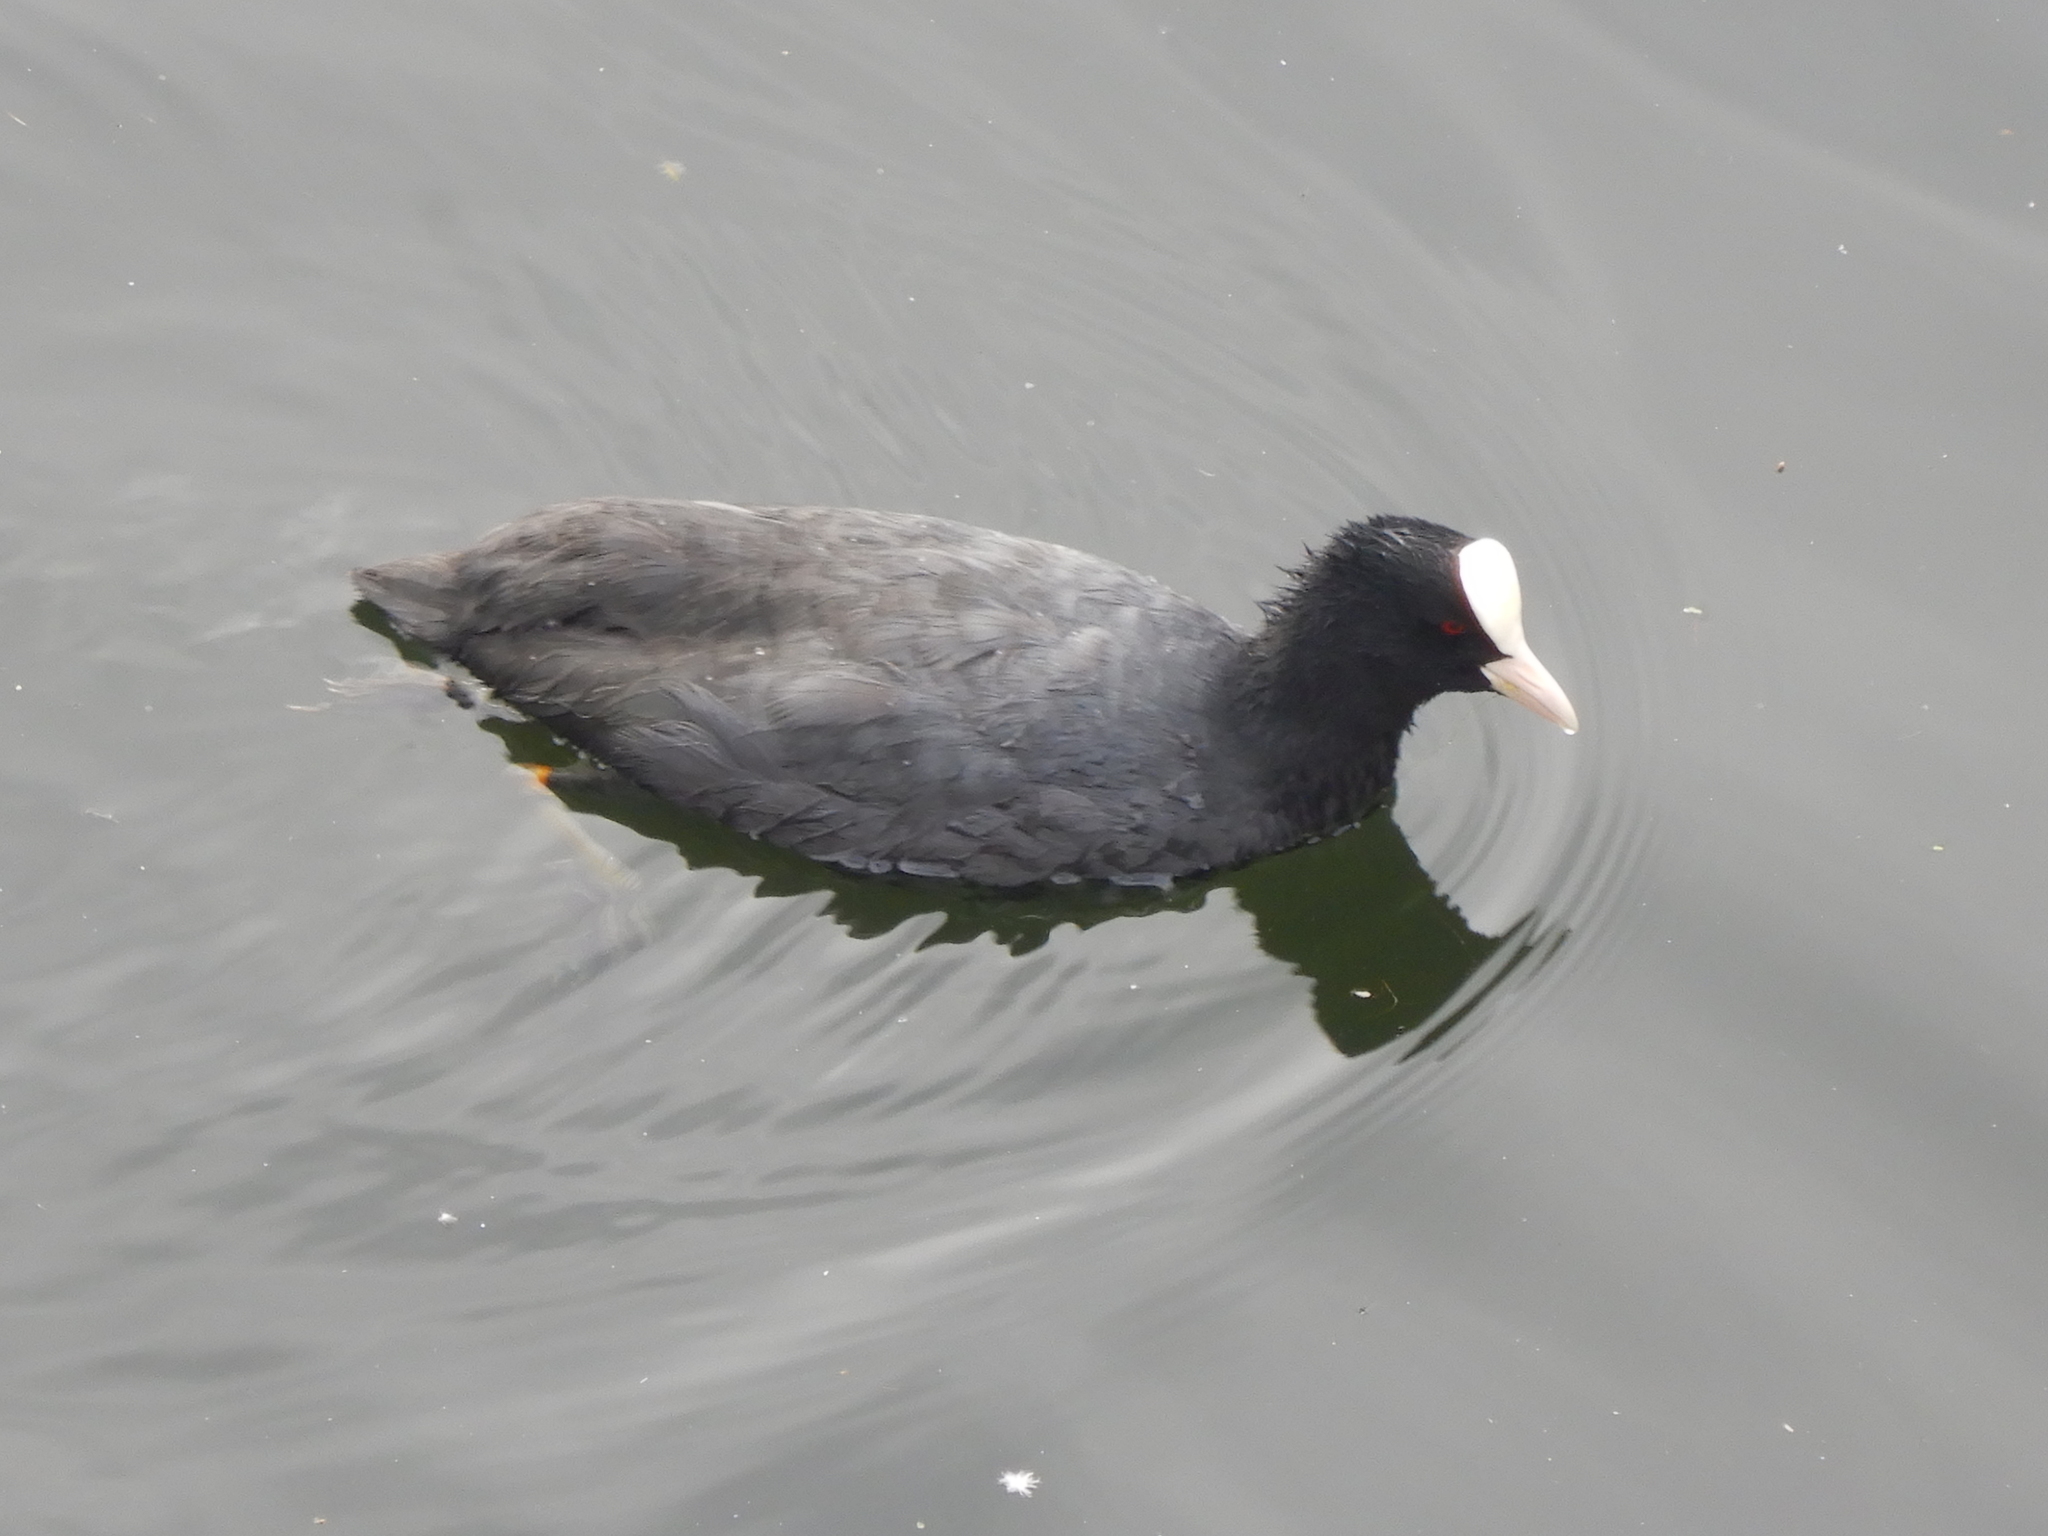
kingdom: Animalia
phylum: Chordata
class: Aves
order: Gruiformes
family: Rallidae
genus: Fulica
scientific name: Fulica atra
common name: Eurasian coot
